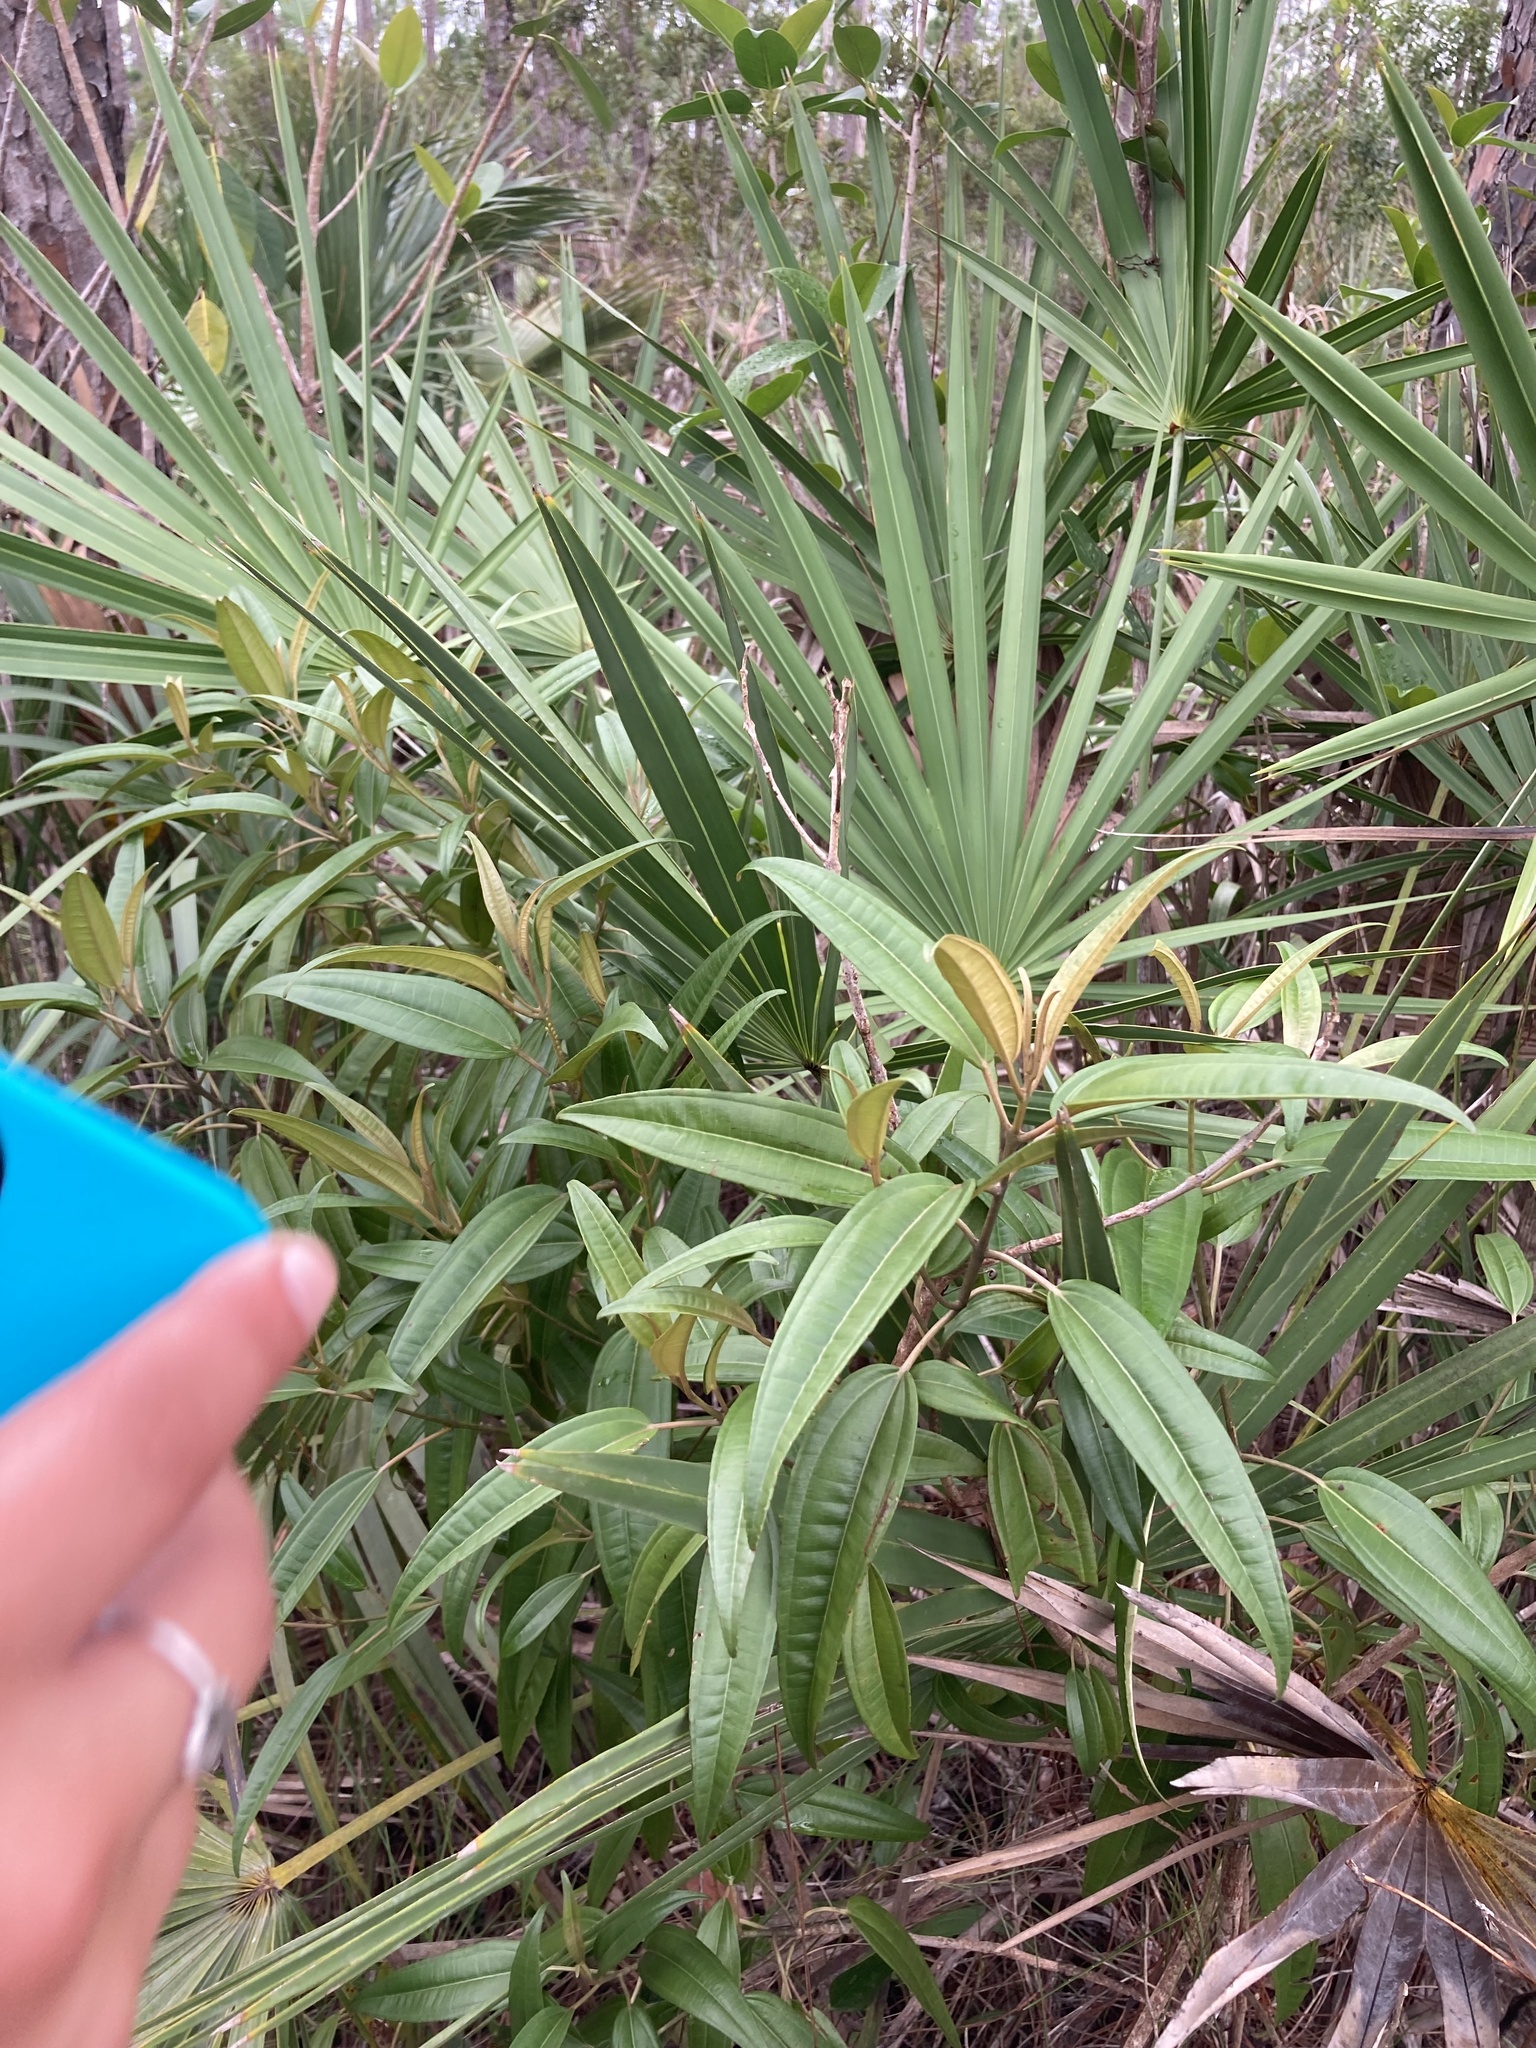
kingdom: Plantae
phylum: Tracheophyta
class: Magnoliopsida
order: Myrtales
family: Melastomataceae
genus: Miconia
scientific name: Miconia bicolor
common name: Johnnyberry
